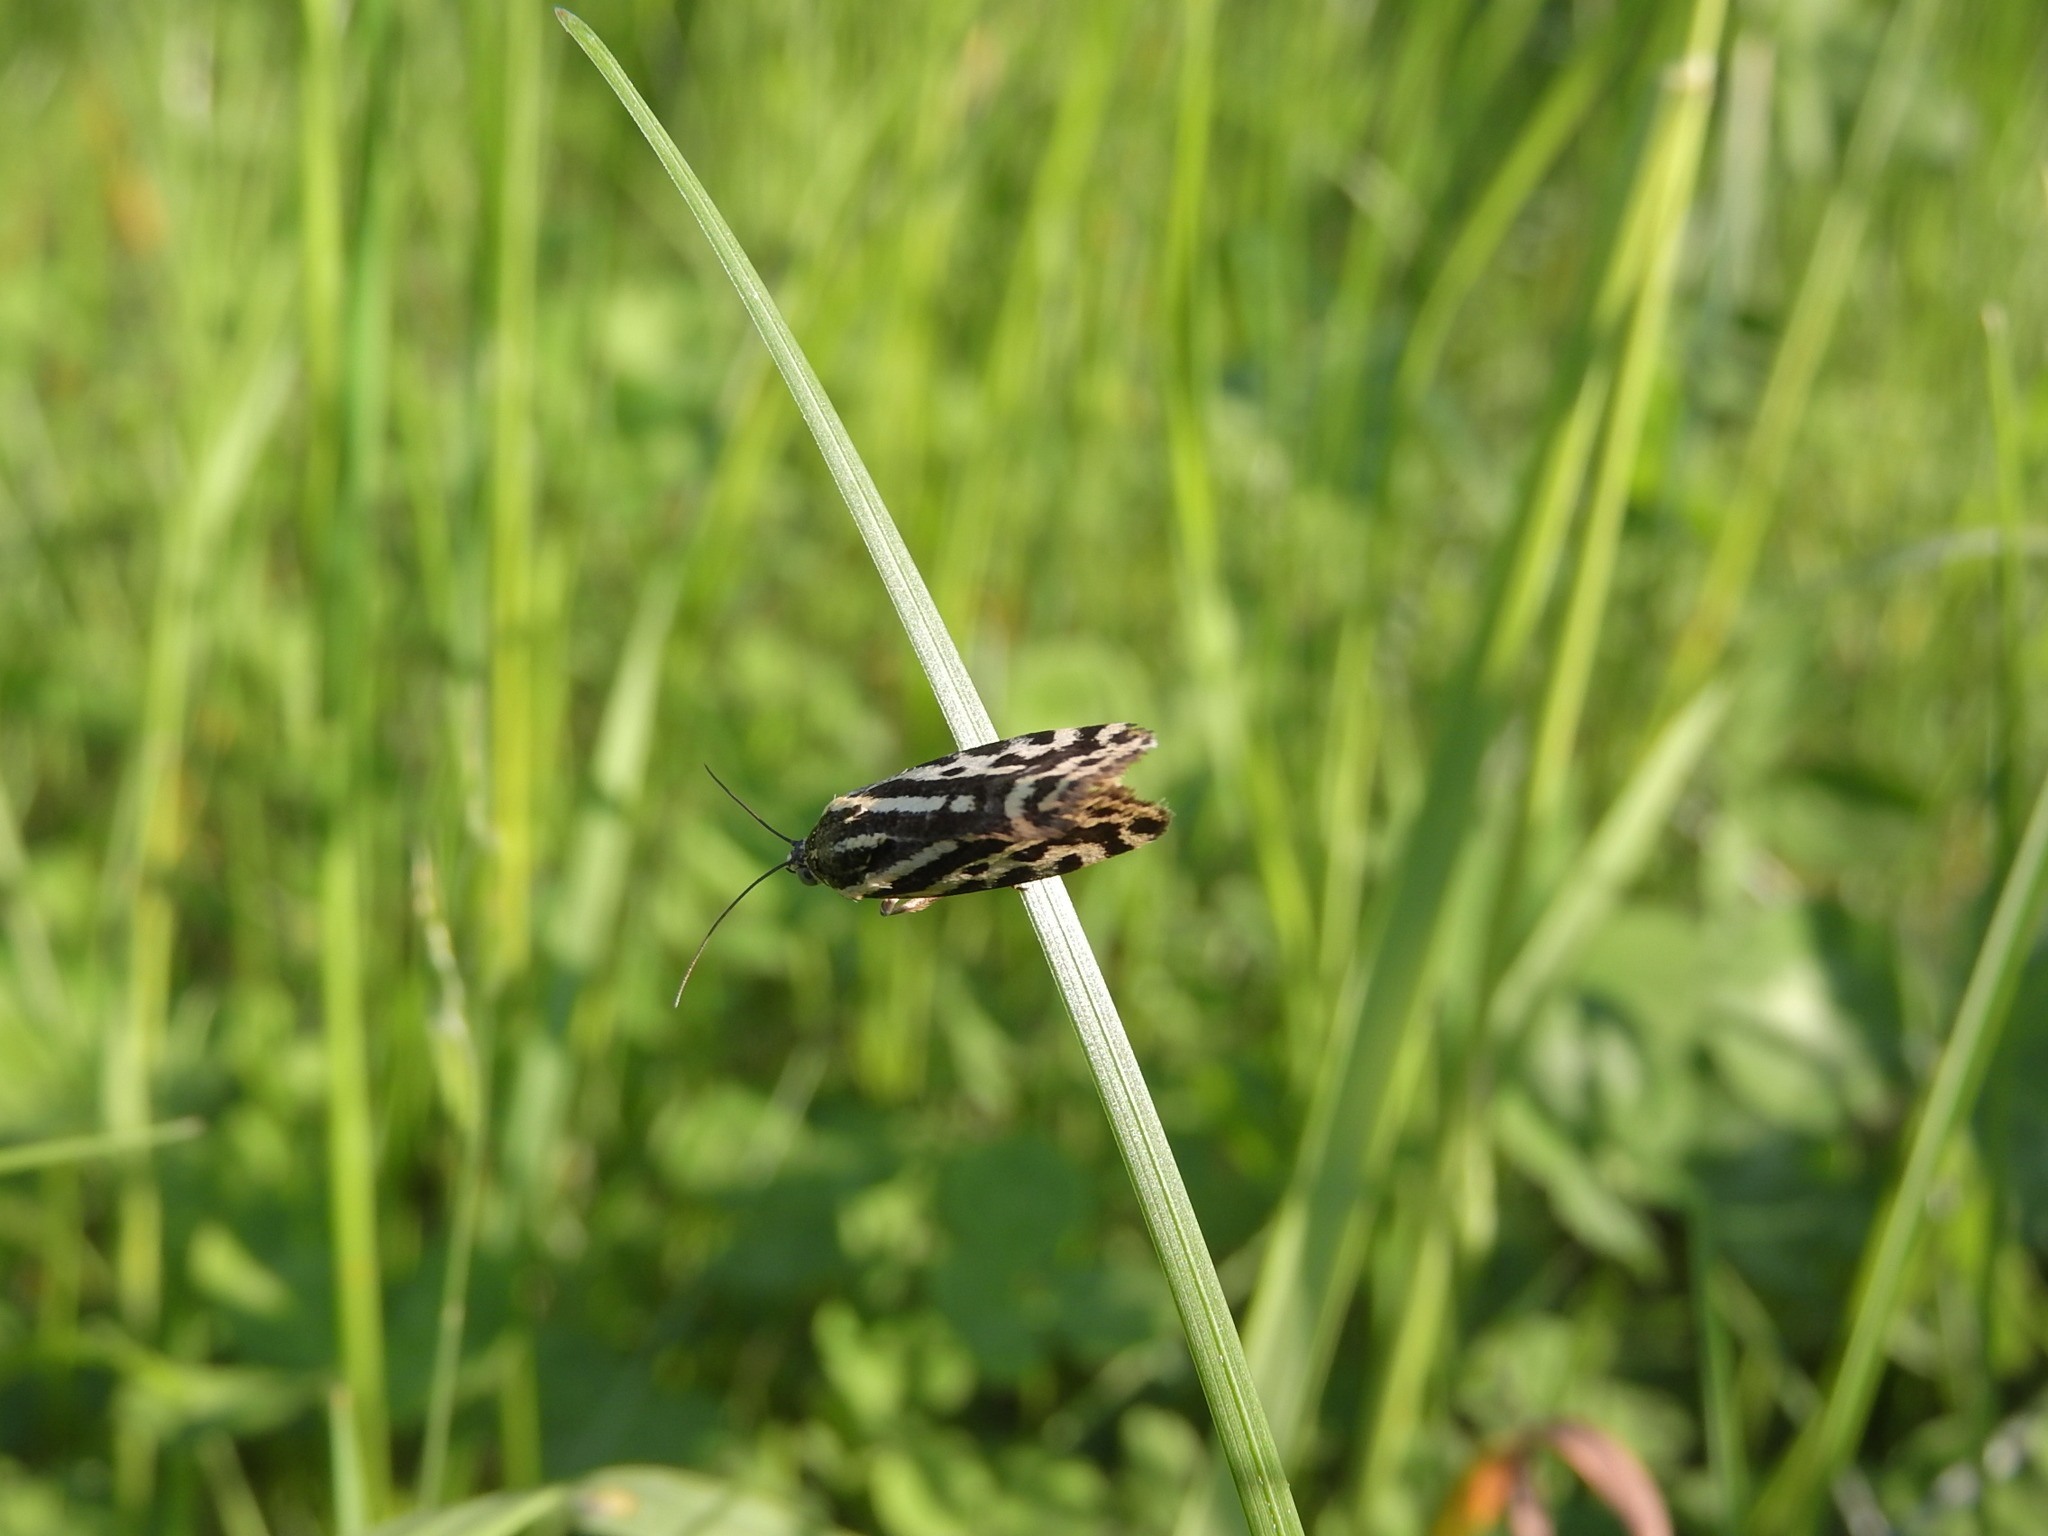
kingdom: Animalia
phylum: Arthropoda
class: Insecta
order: Lepidoptera
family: Noctuidae
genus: Acontia
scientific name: Acontia trabealis
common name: Spotted sulphur
